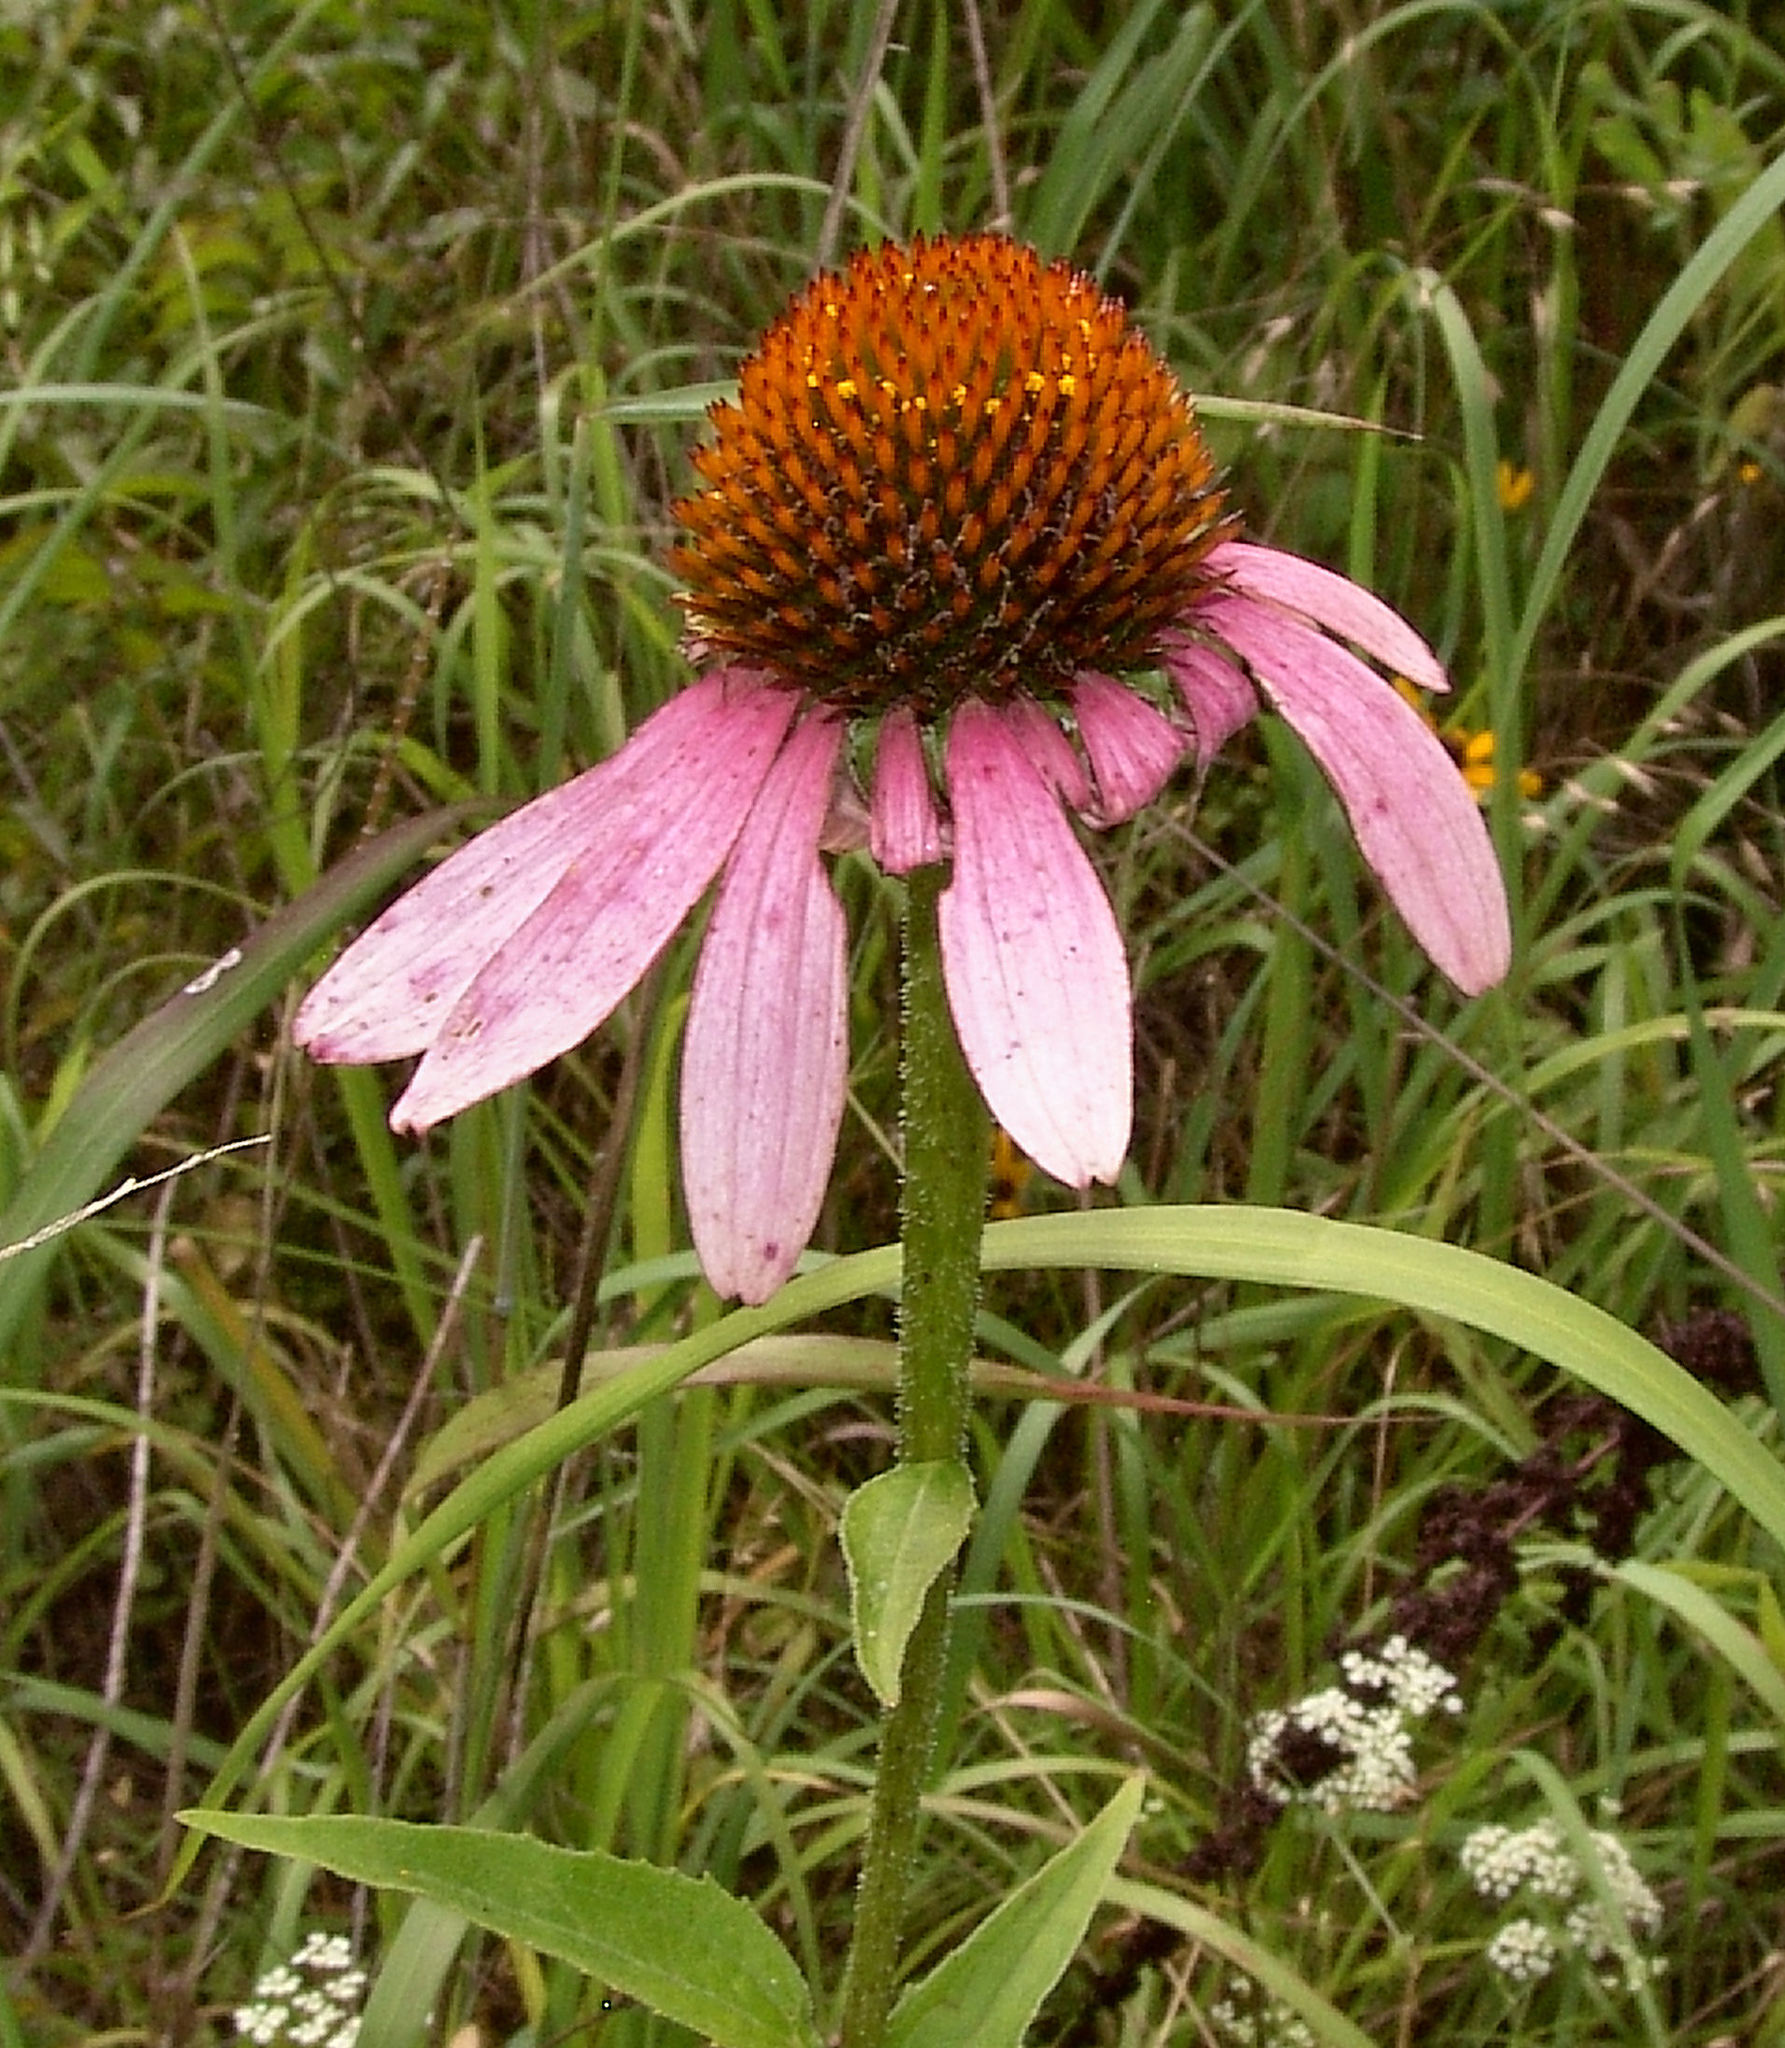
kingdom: Plantae
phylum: Tracheophyta
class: Magnoliopsida
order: Asterales
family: Asteraceae
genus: Echinacea
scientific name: Echinacea purpurea
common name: Broad-leaved purple coneflower
